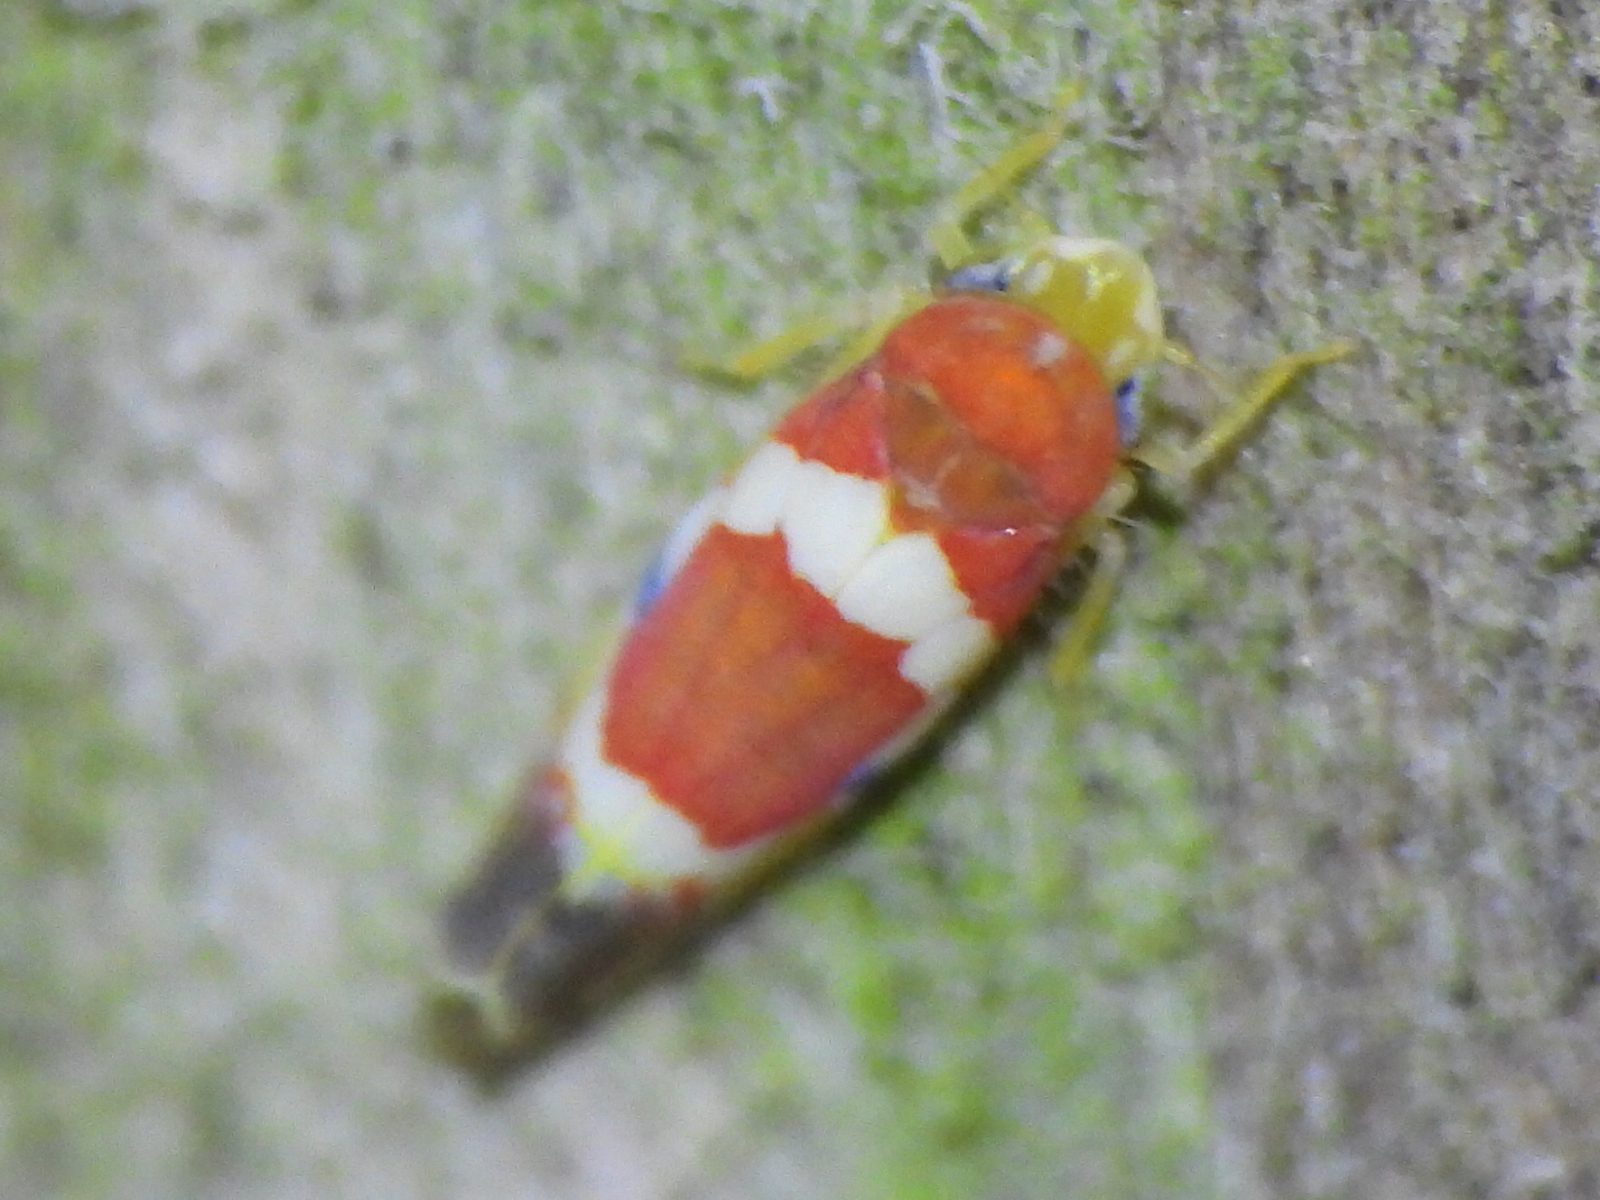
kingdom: Animalia
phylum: Arthropoda
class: Insecta
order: Hemiptera
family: Cicadellidae
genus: Erythroneura
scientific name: Erythroneura vitis
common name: Grapevine leafhopper
